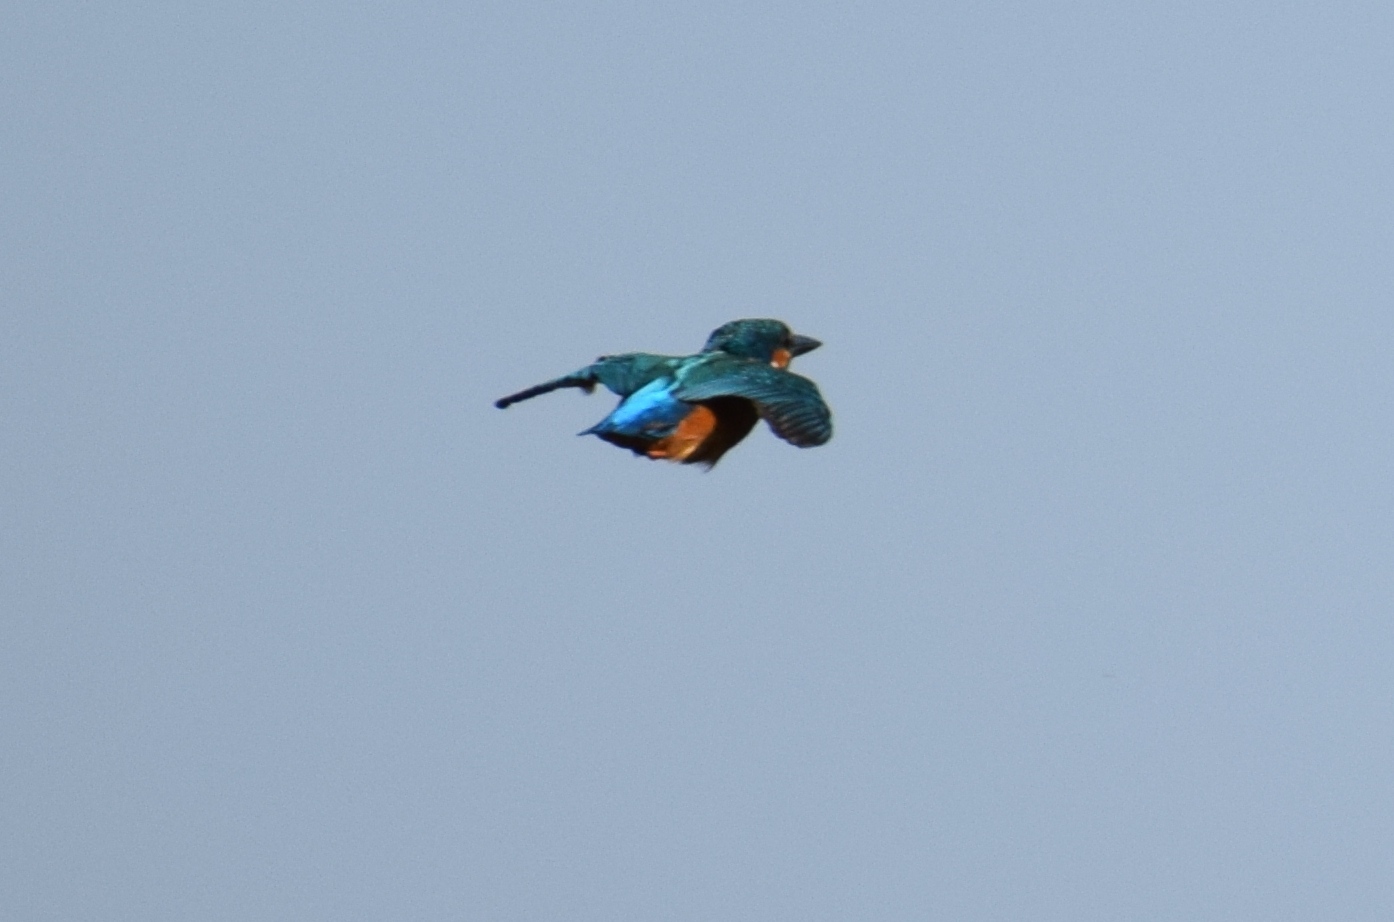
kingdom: Animalia
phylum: Chordata
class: Aves
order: Coraciiformes
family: Alcedinidae
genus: Alcedo
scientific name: Alcedo atthis
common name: Common kingfisher
